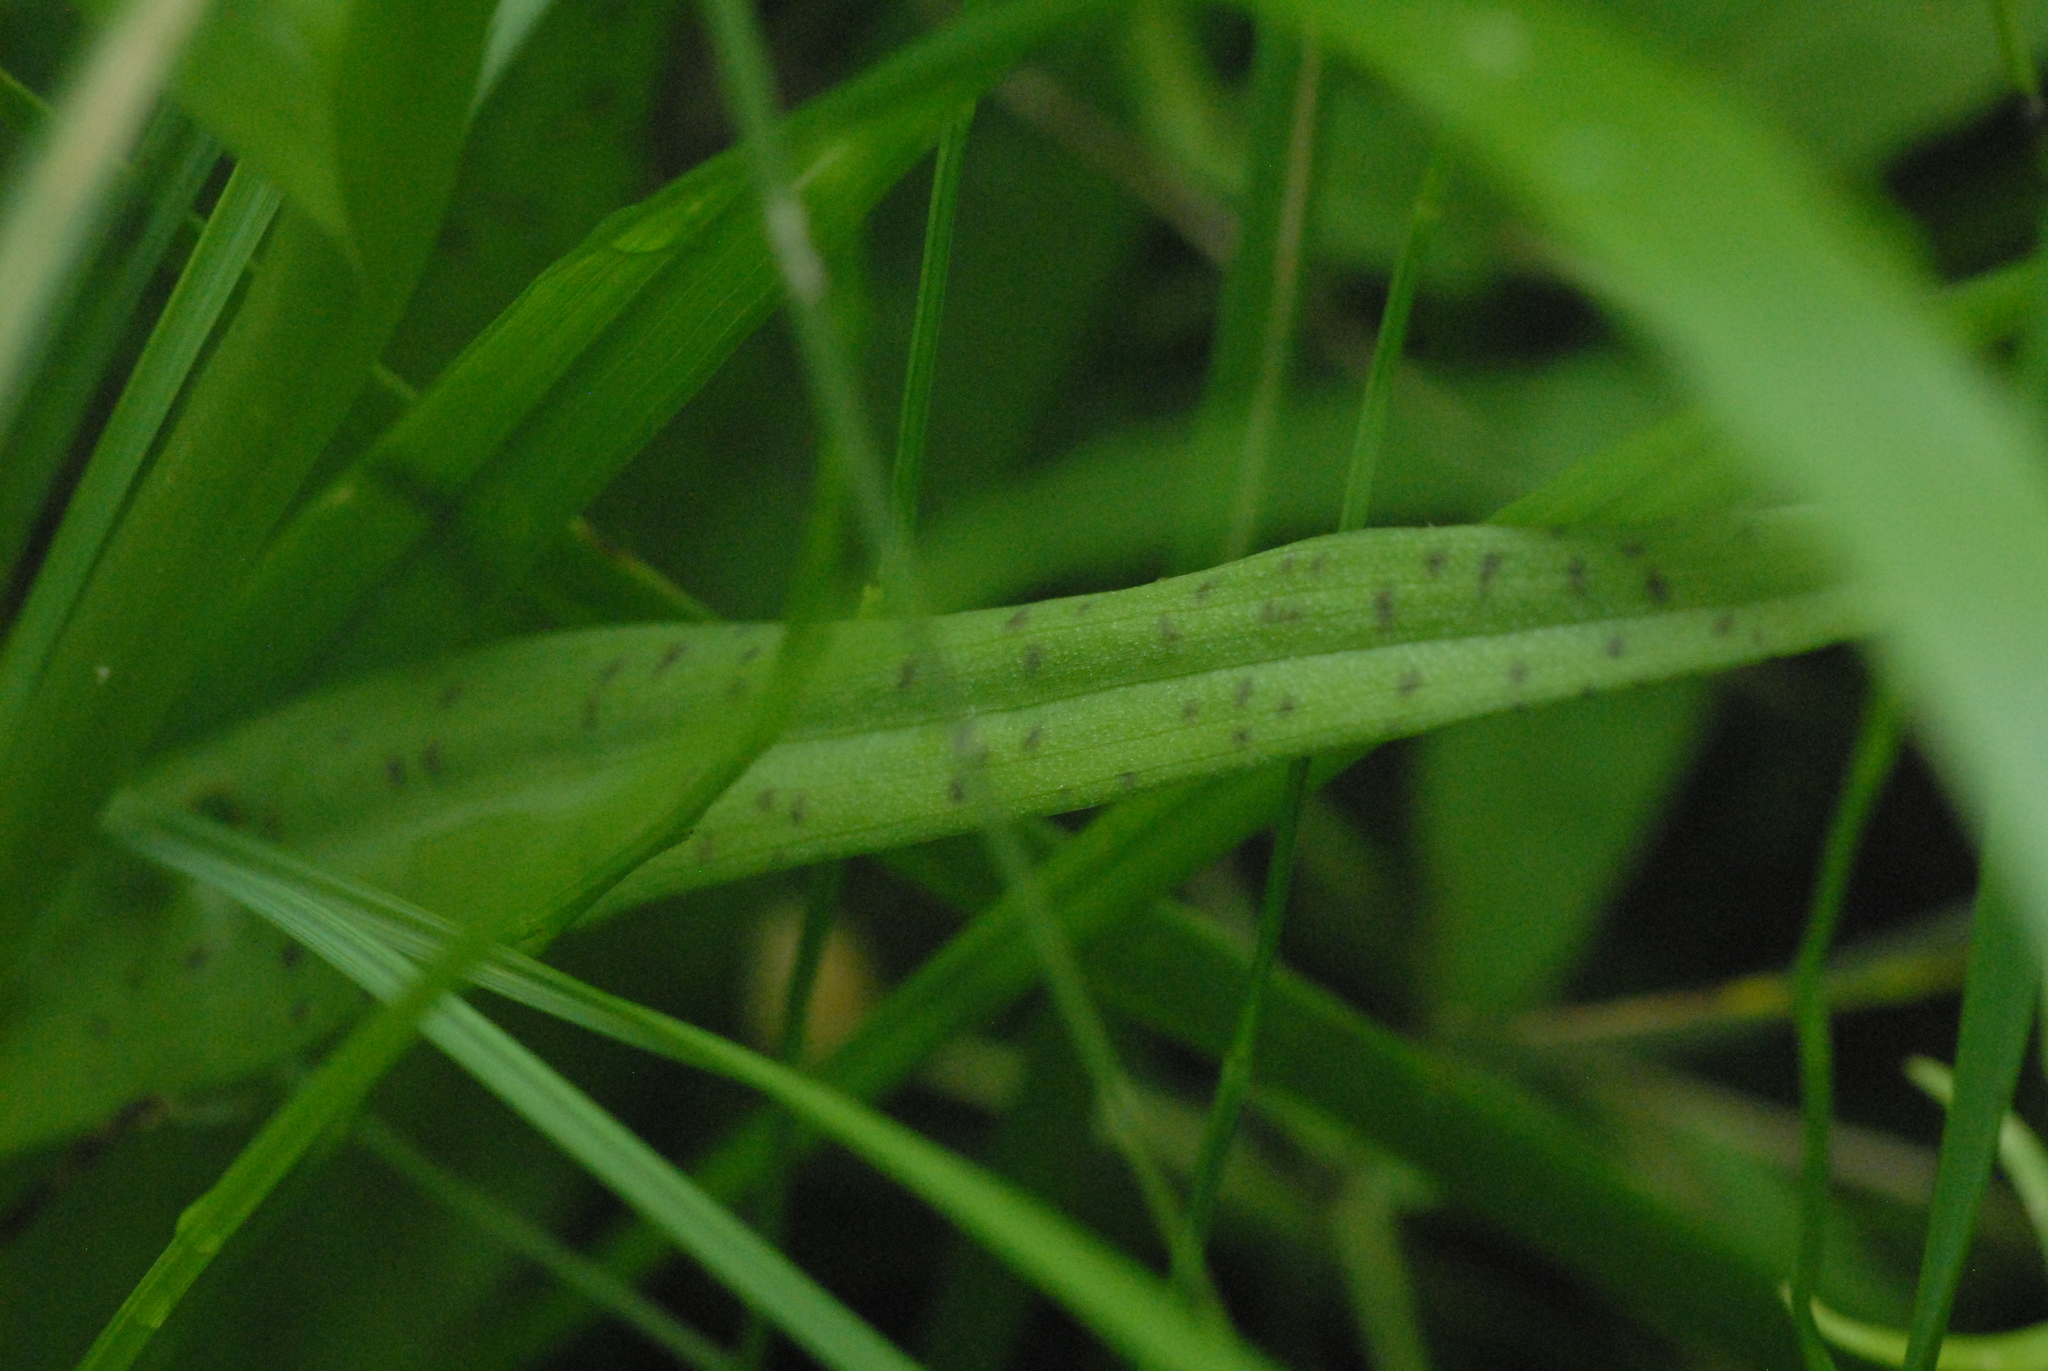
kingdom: Plantae
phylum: Tracheophyta
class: Liliopsida
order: Asparagales
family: Orchidaceae
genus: Dactylorhiza
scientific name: Dactylorhiza majalis
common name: Marsh orchid
